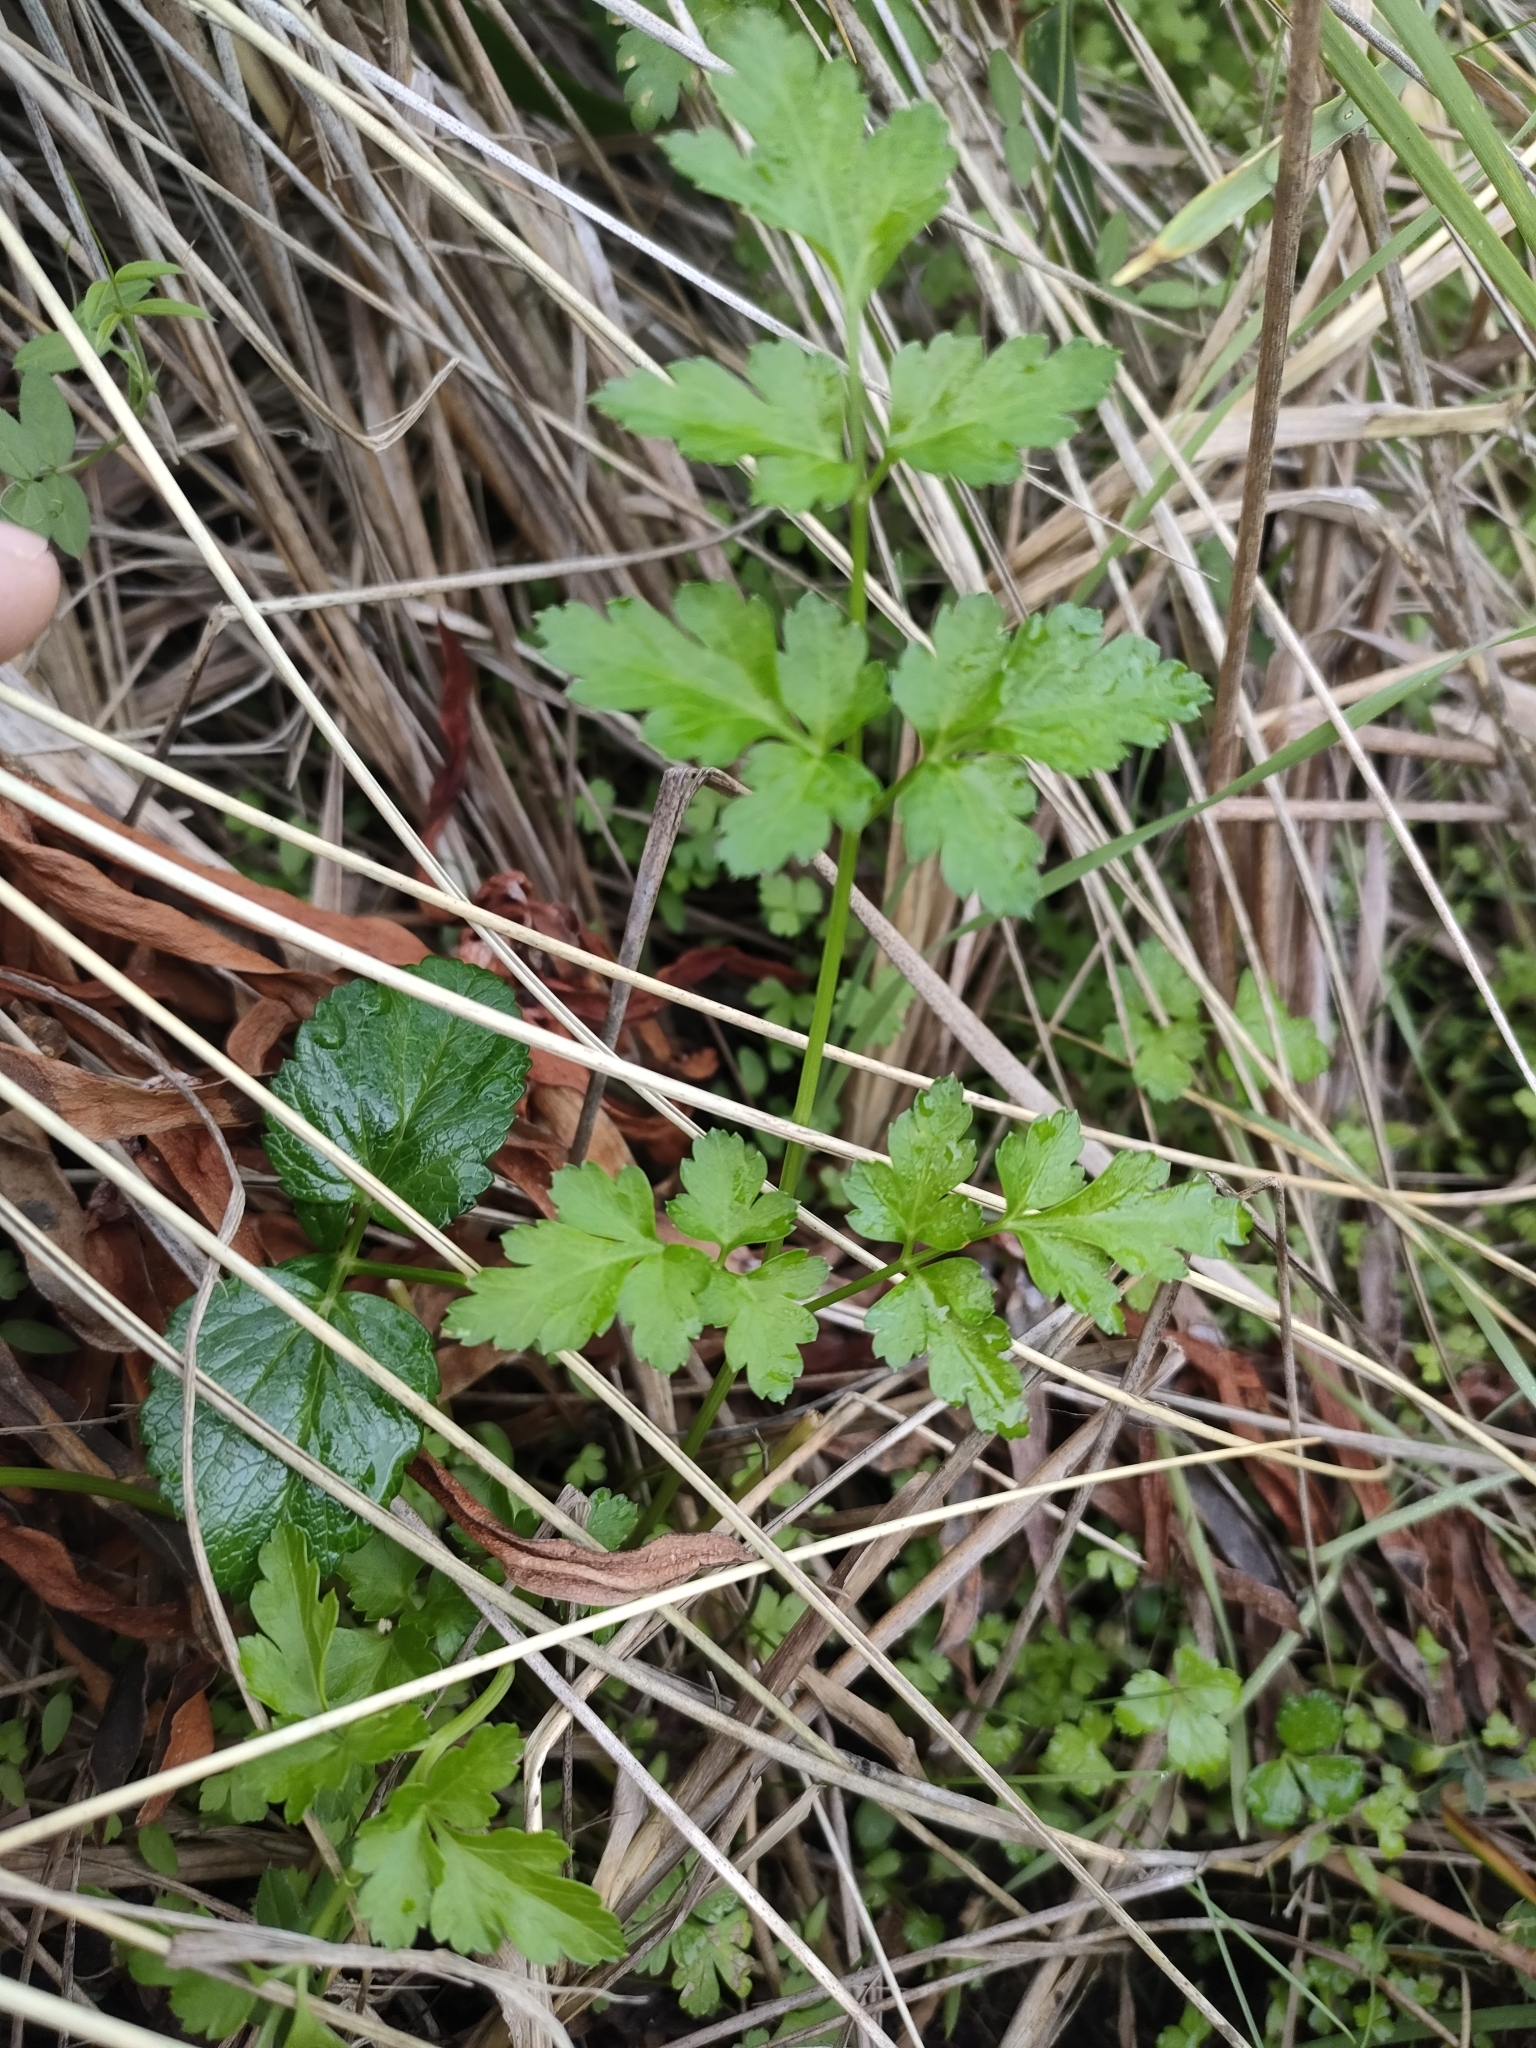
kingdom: Plantae
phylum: Tracheophyta
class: Magnoliopsida
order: Apiales
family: Apiaceae
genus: Petroselinum
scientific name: Petroselinum crispum
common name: Parsley
